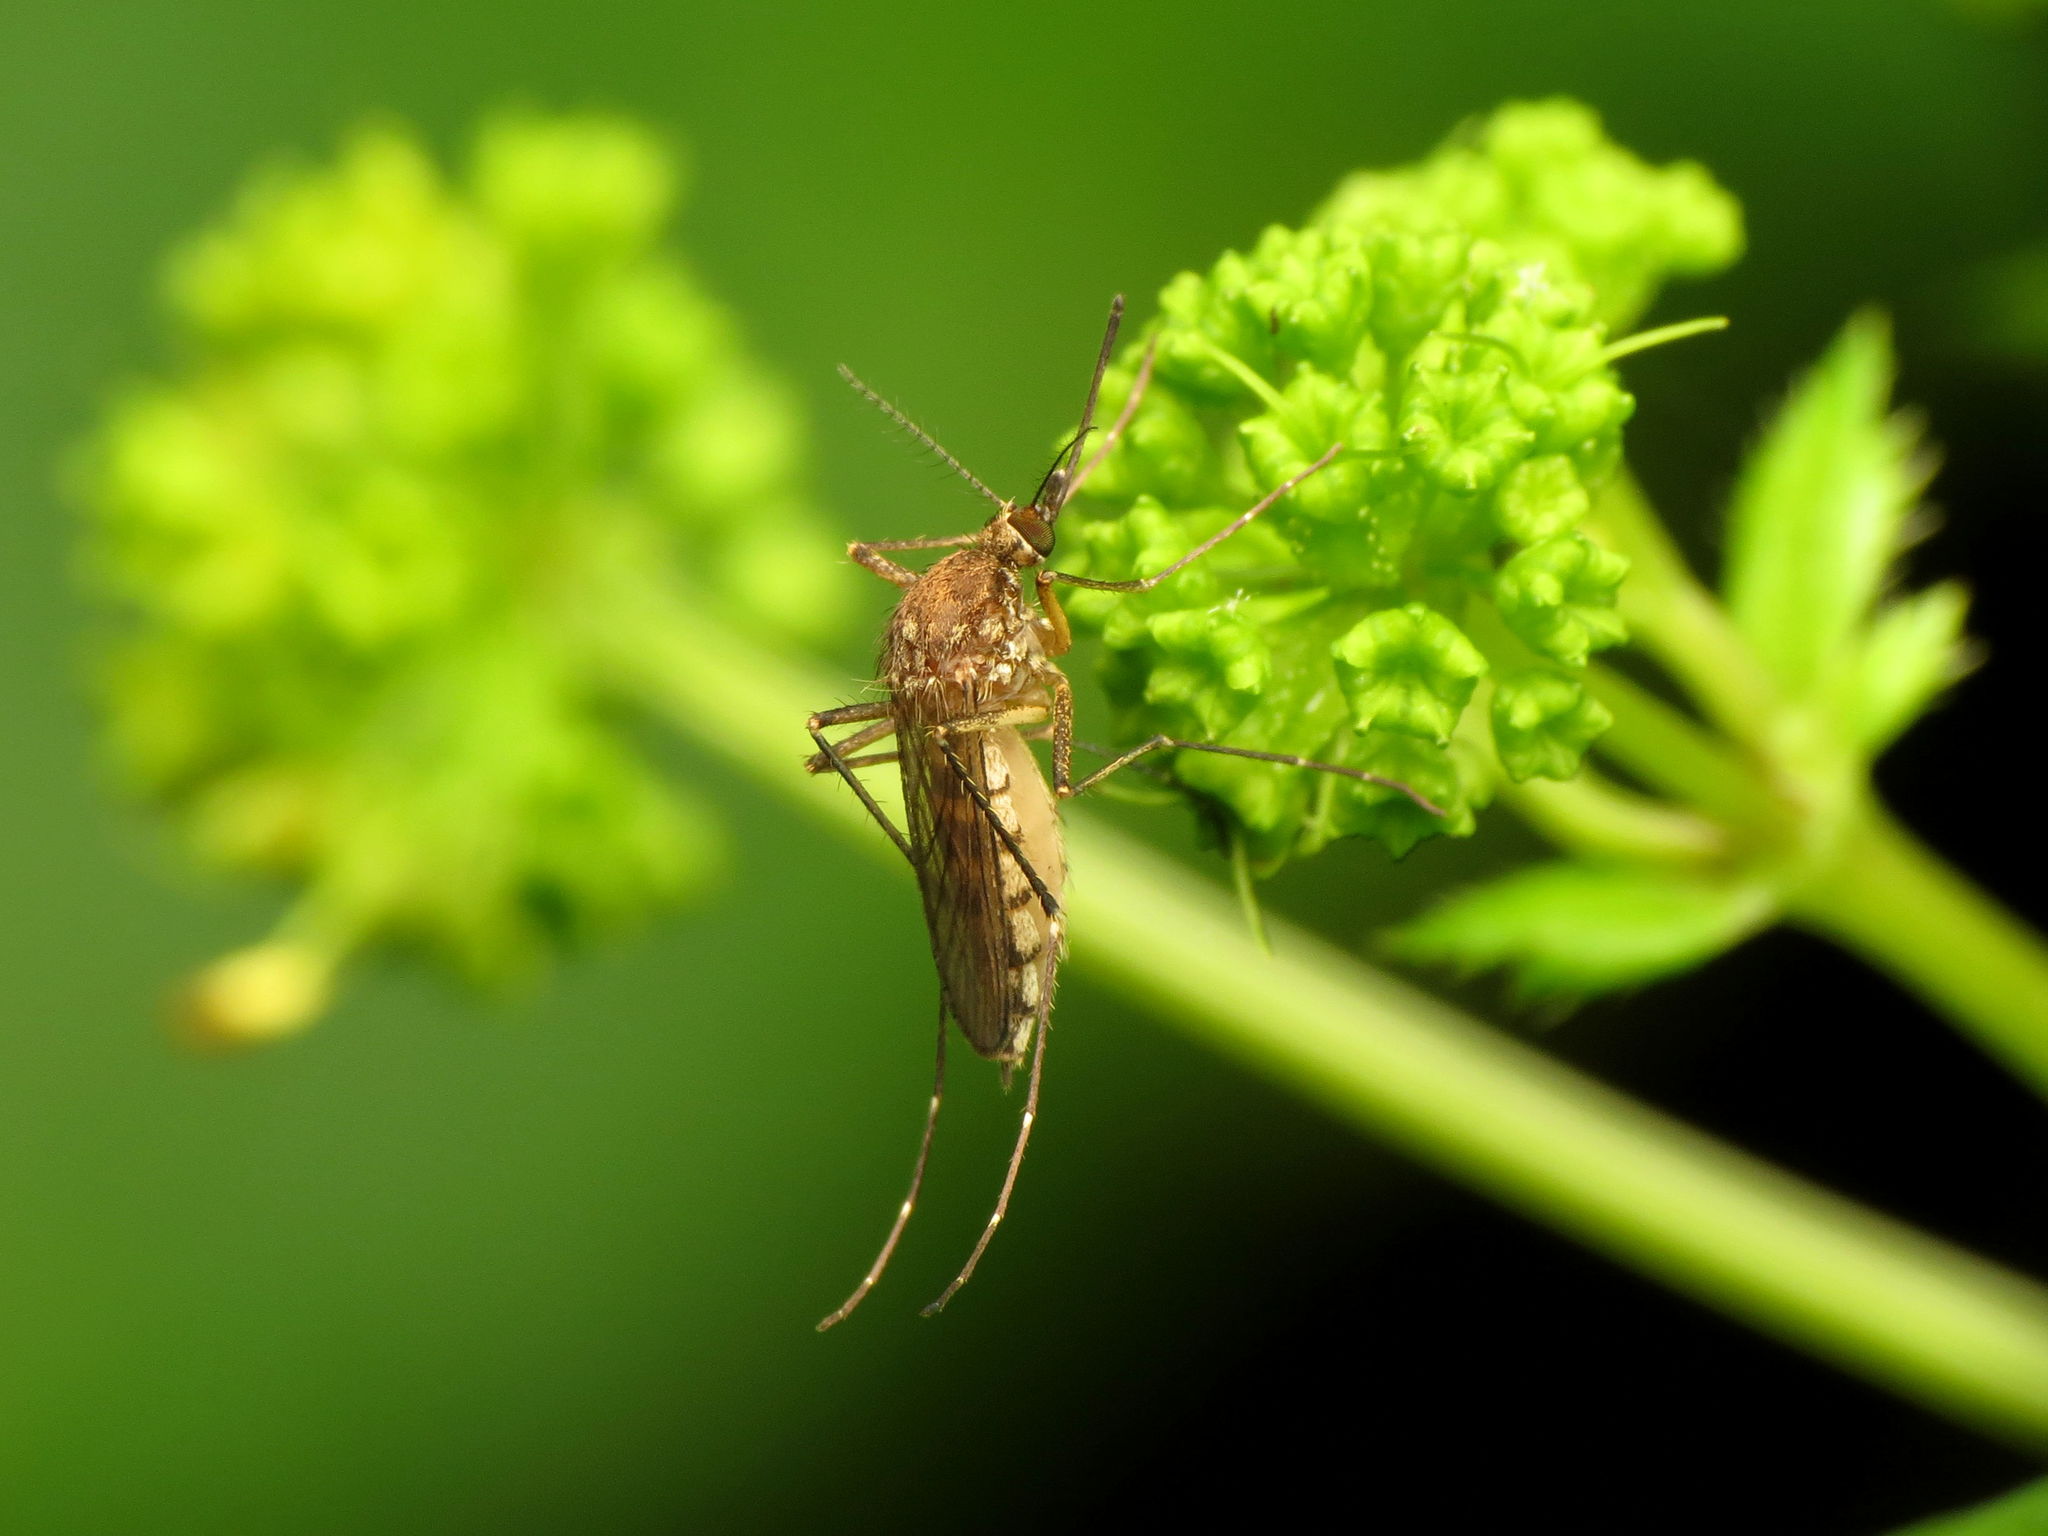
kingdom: Animalia
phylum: Arthropoda
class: Insecta
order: Diptera
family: Culicidae
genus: Aedes
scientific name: Aedes vexans
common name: Inland floodwater mosquito
